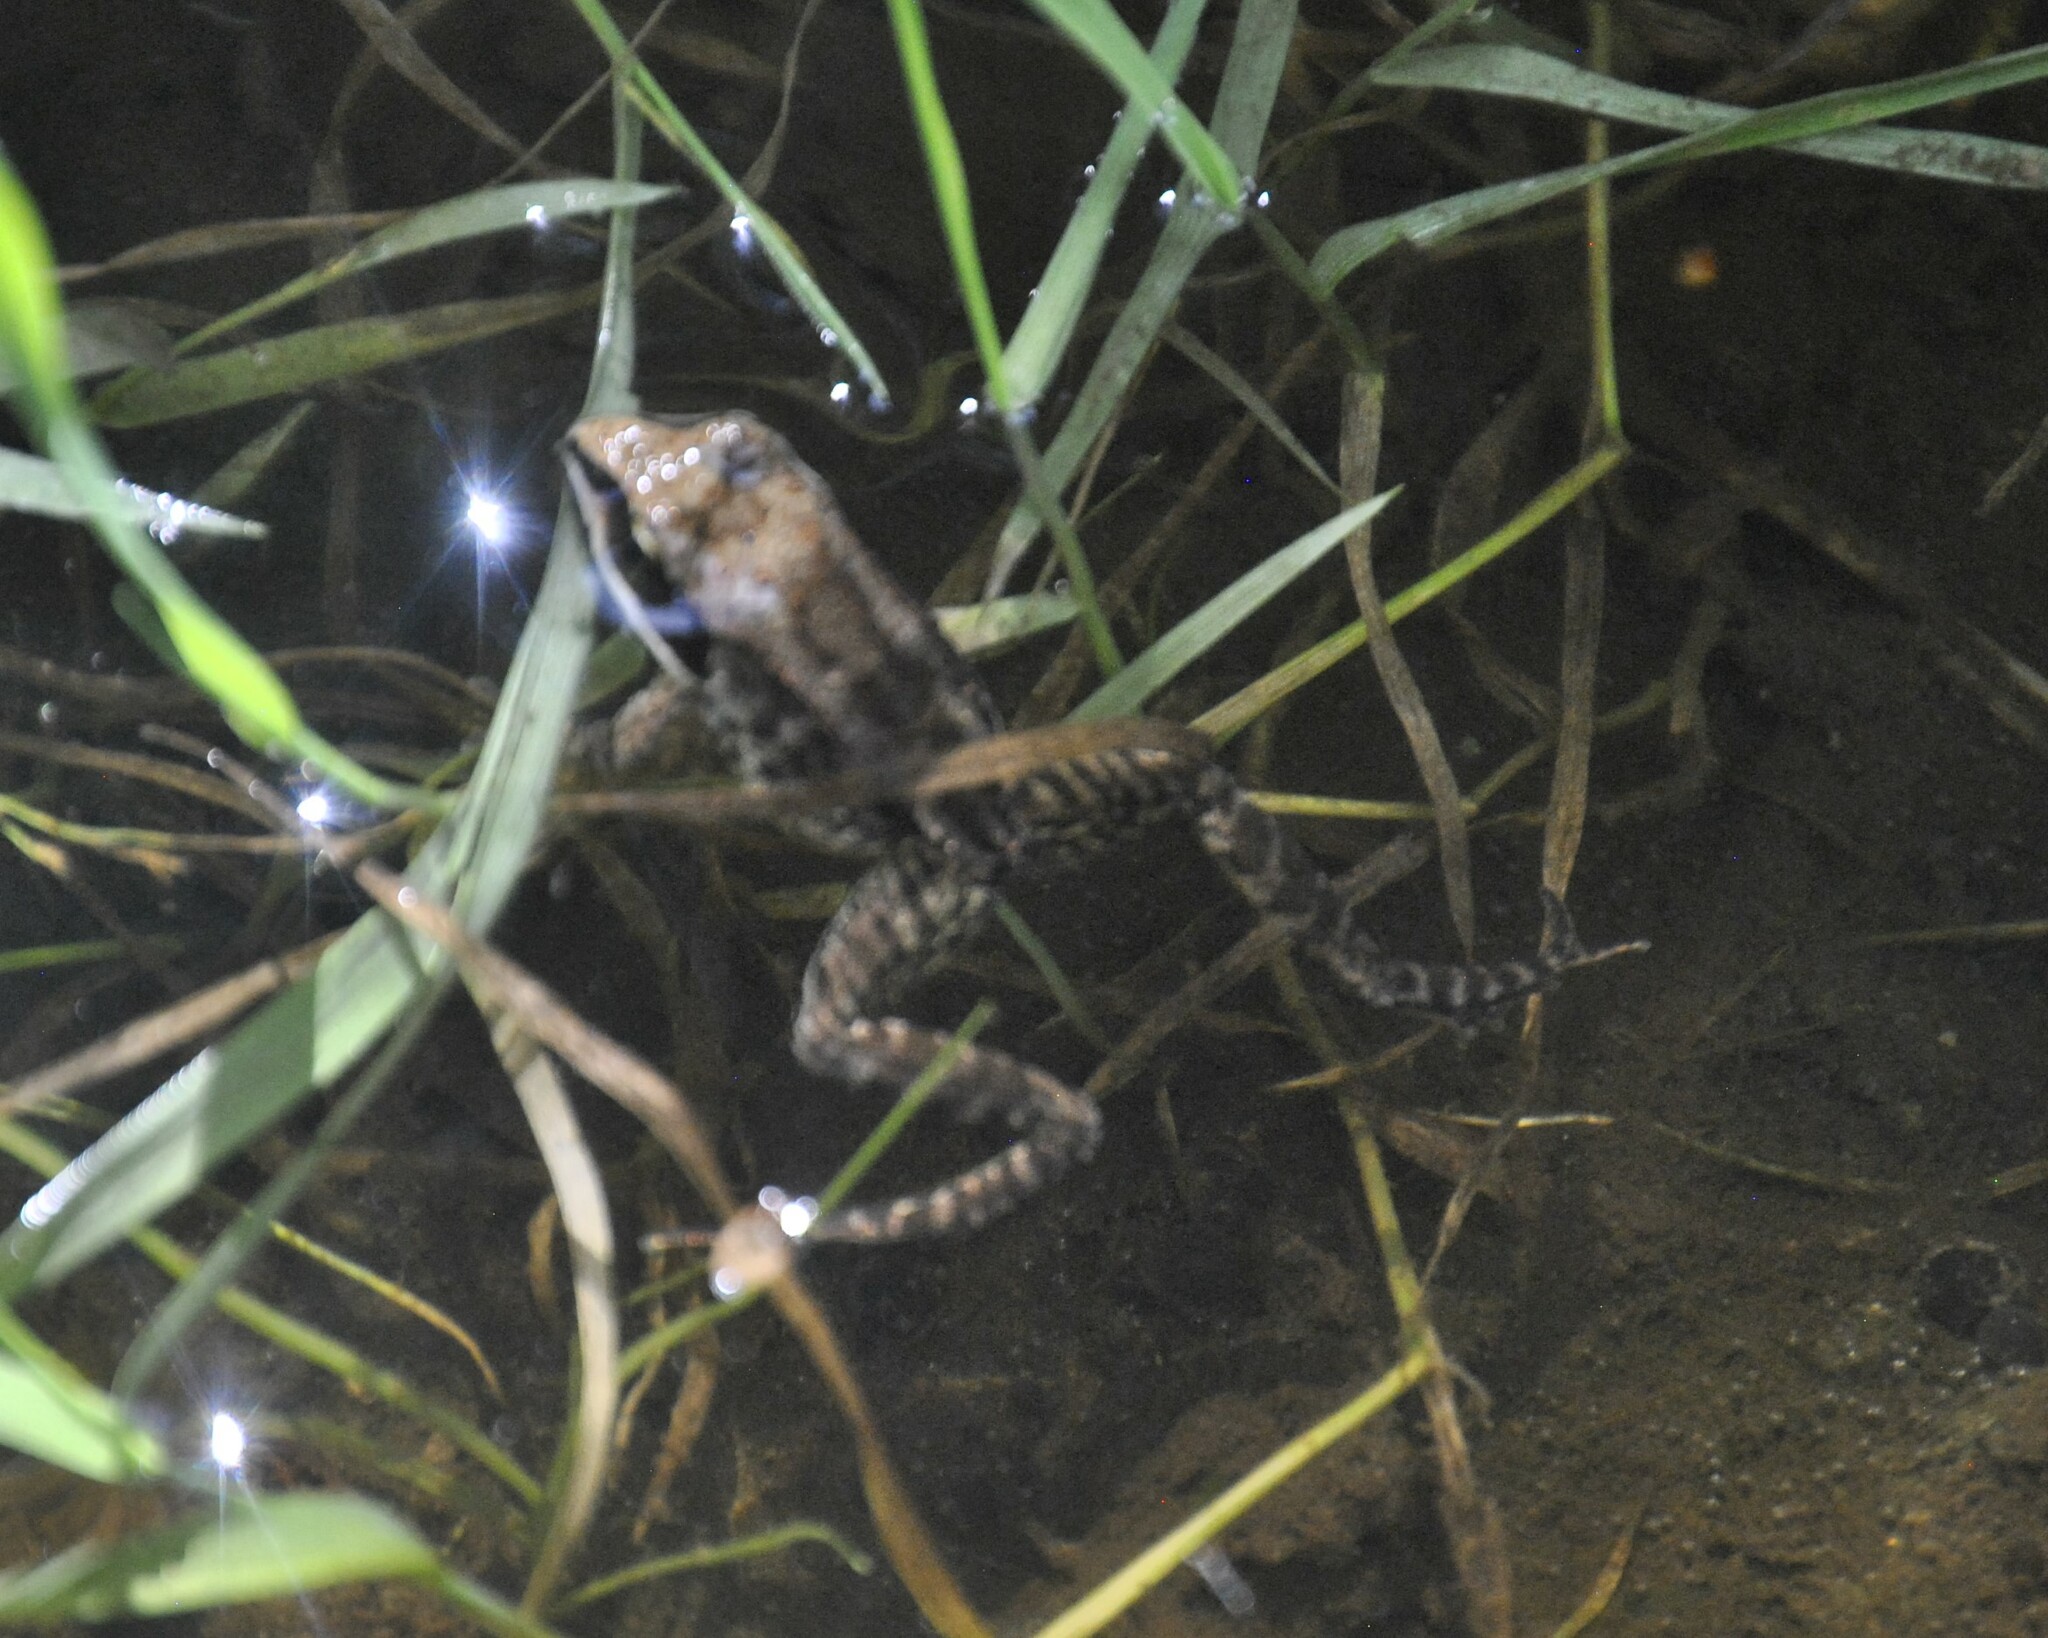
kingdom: Animalia
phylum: Chordata
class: Amphibia
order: Anura
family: Ranidae
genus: Lithobates
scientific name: Lithobates sylvaticus
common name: Wood frog
